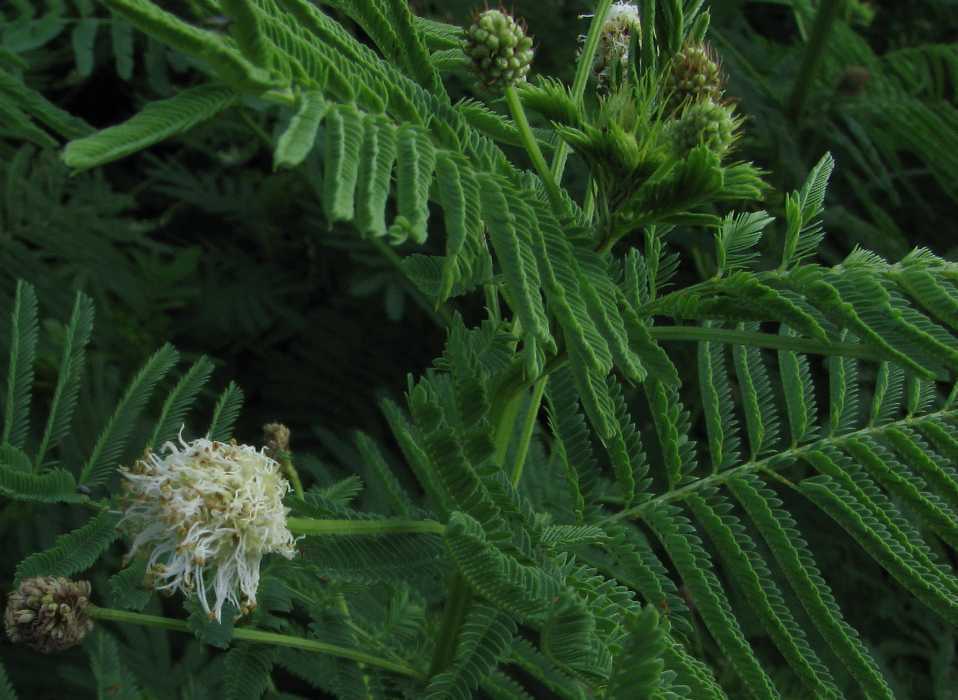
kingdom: Plantae
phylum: Tracheophyta
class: Magnoliopsida
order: Fabales
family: Fabaceae
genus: Desmanthus
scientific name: Desmanthus illinoensis
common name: Illinois bundle-flower
